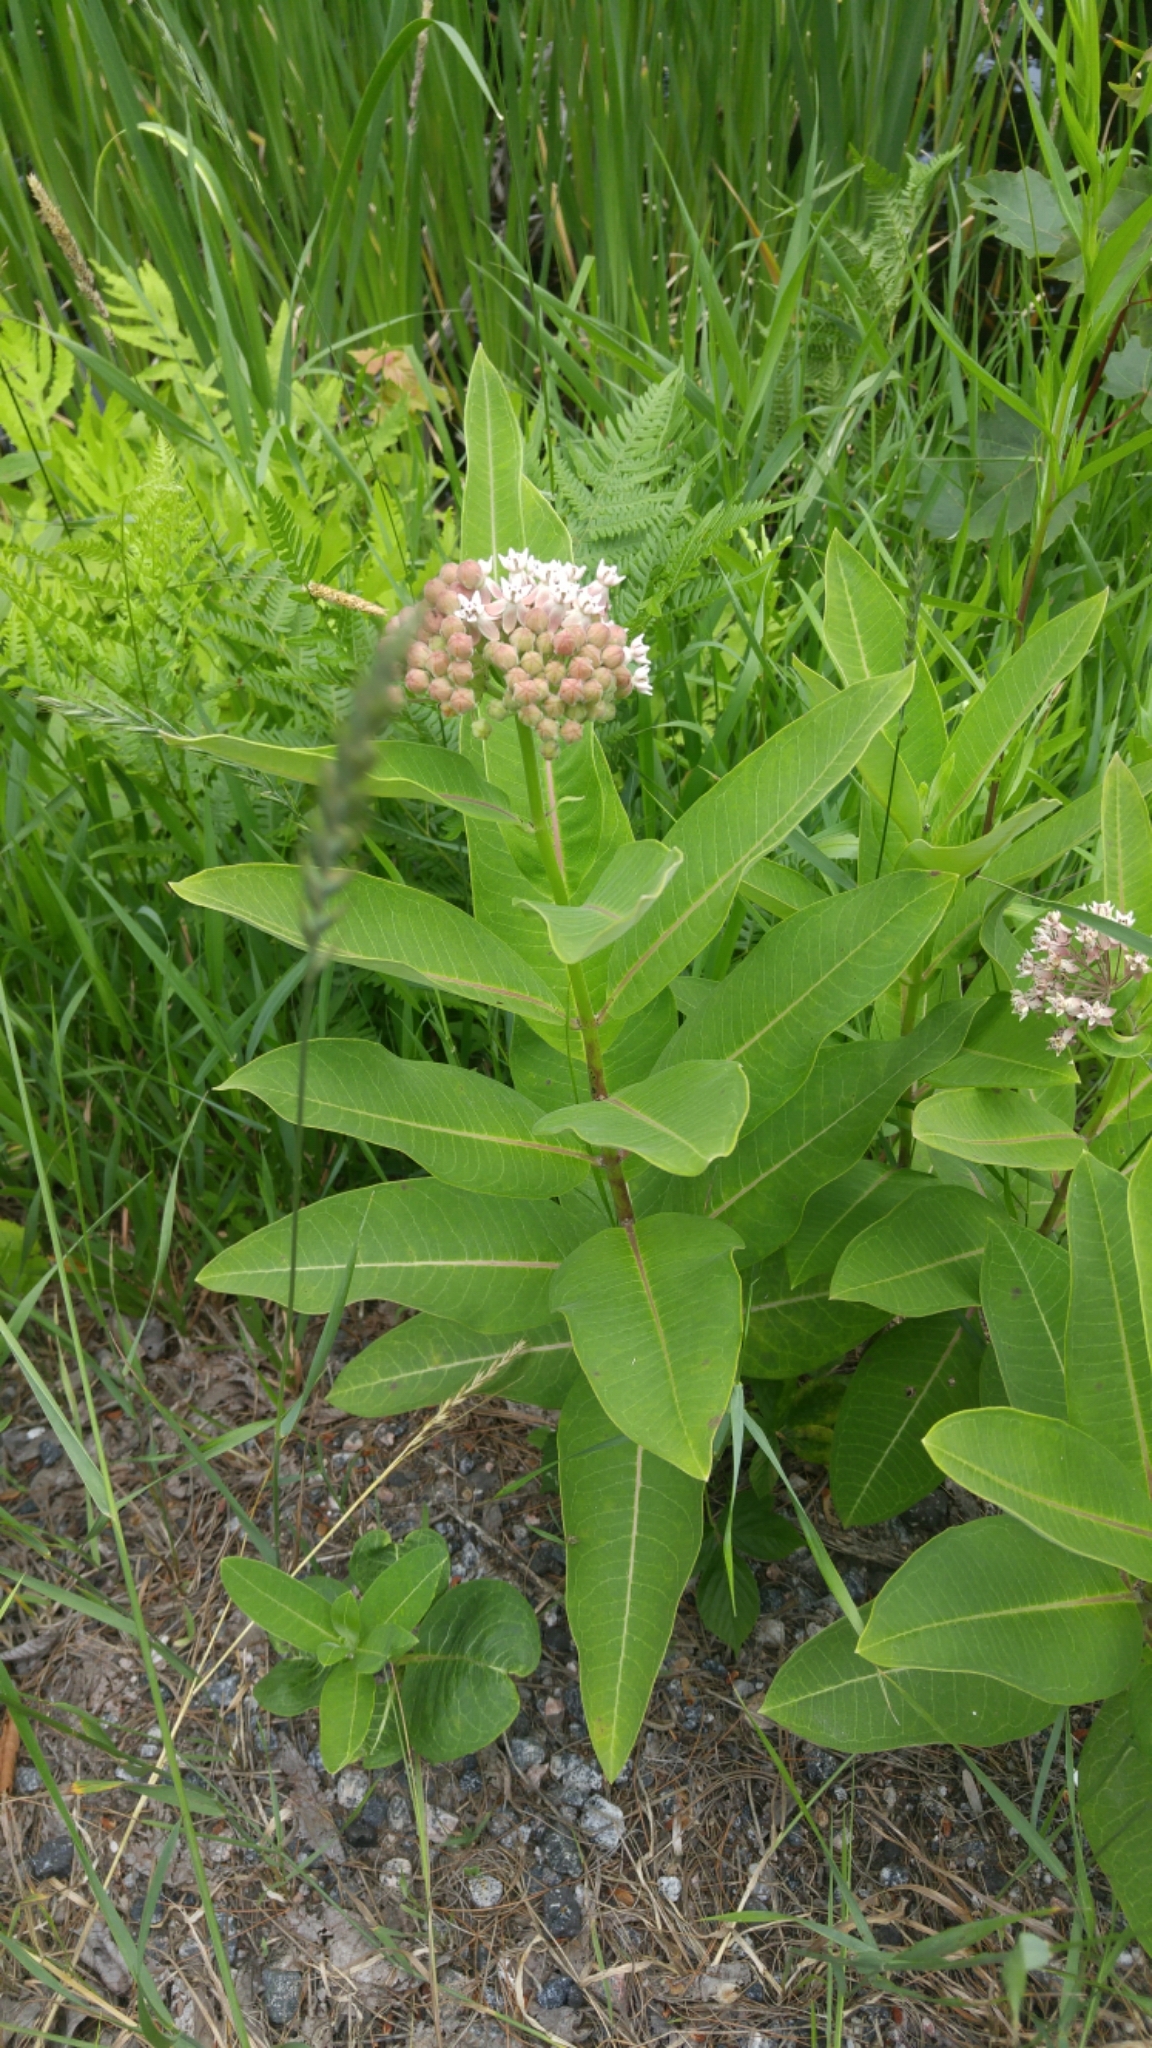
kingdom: Plantae
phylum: Tracheophyta
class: Magnoliopsida
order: Gentianales
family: Apocynaceae
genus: Asclepias
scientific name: Asclepias syriaca
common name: Common milkweed
